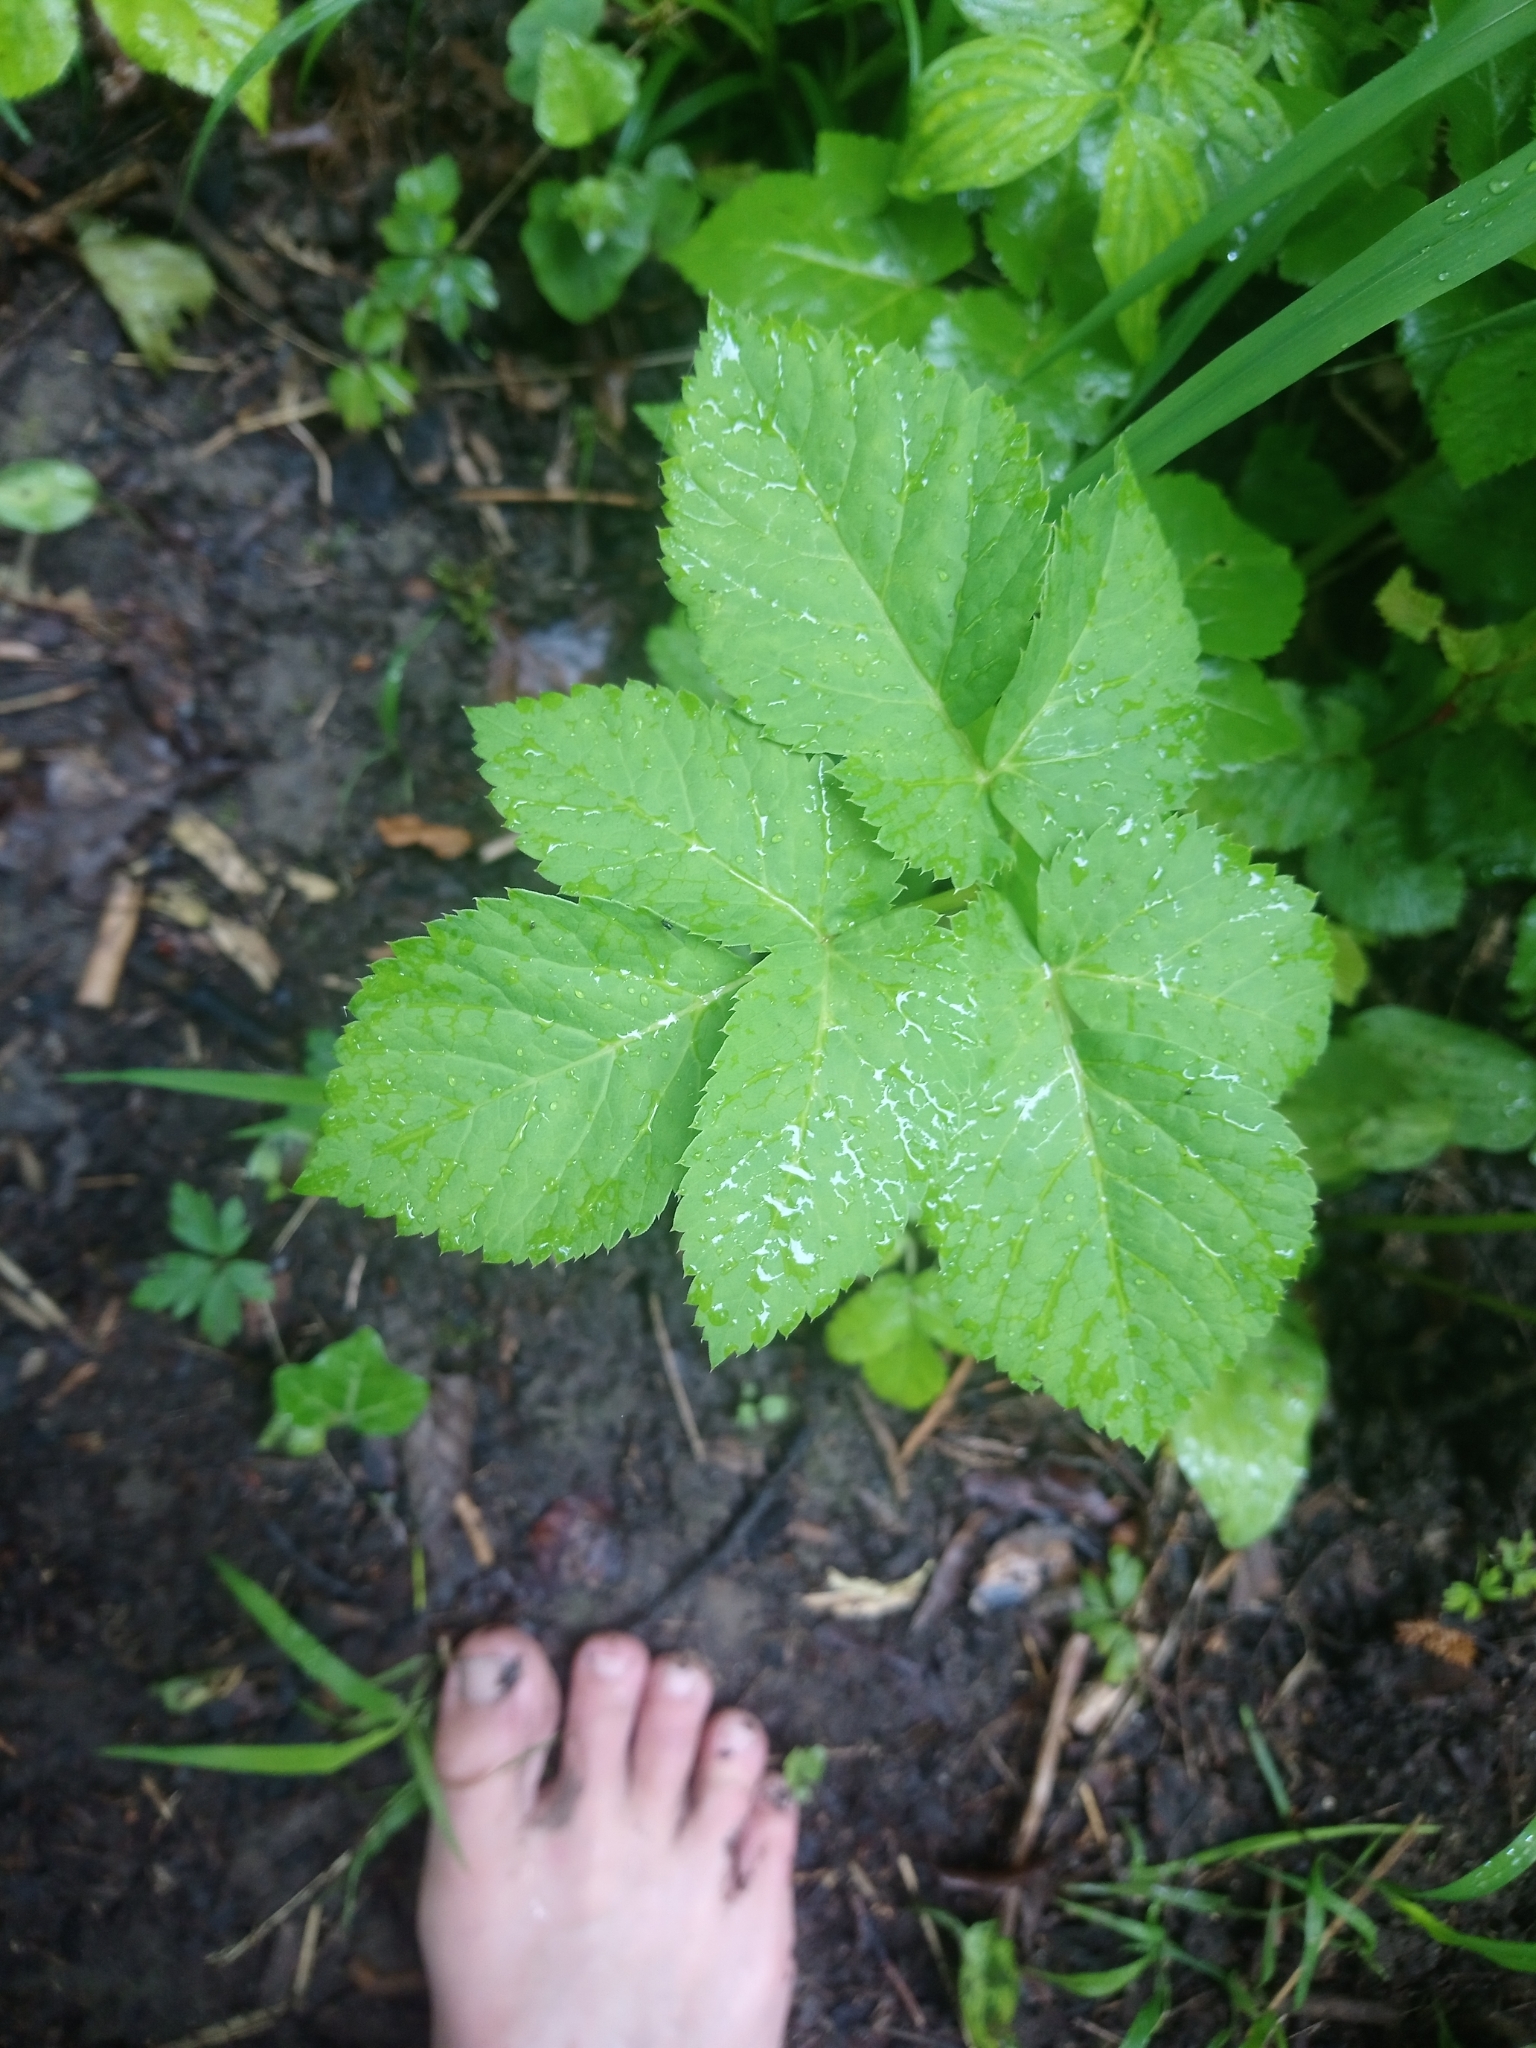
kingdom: Plantae
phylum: Tracheophyta
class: Magnoliopsida
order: Apiales
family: Apiaceae
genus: Aegopodium
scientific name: Aegopodium podagraria
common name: Ground-elder
